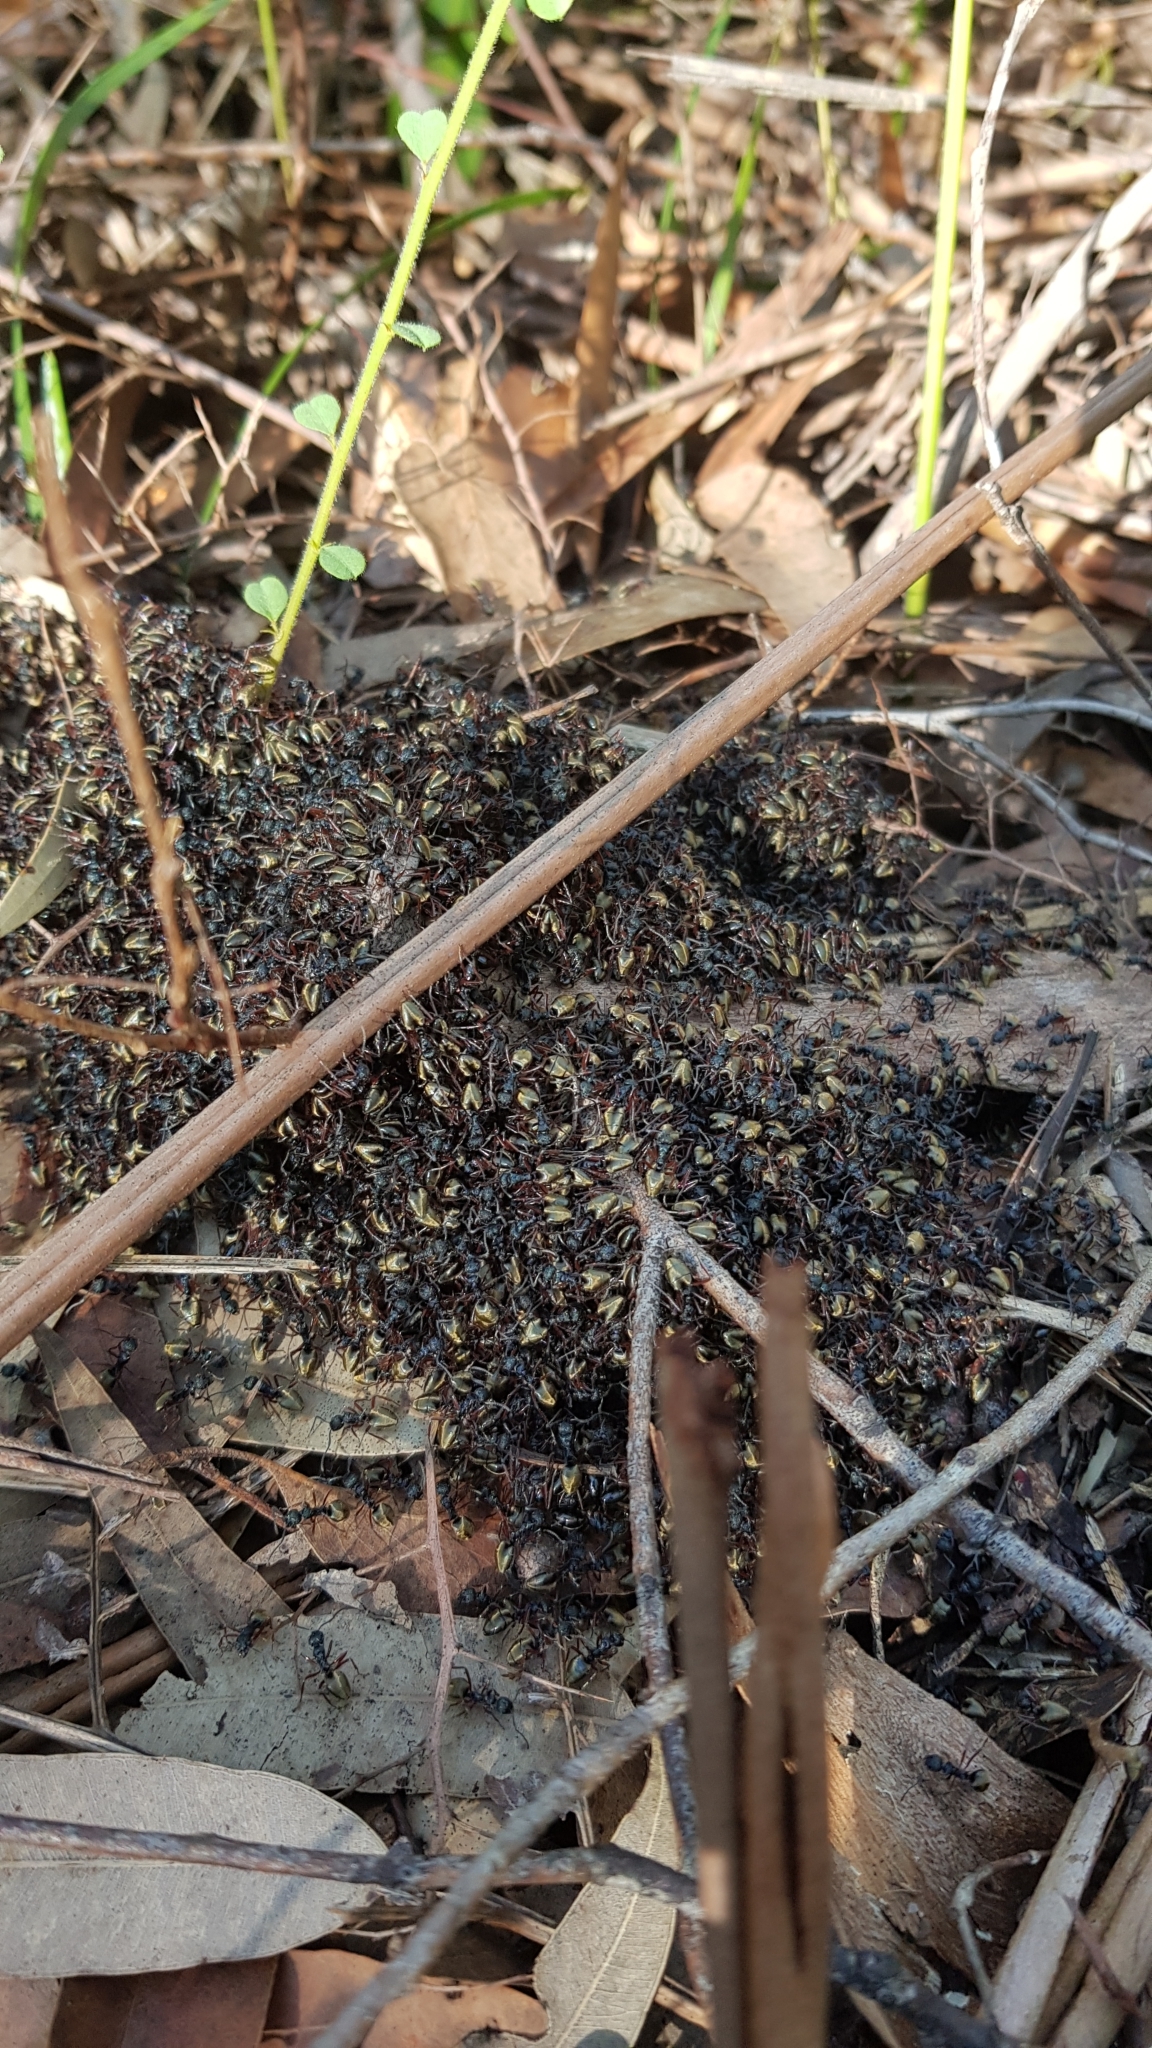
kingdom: Animalia
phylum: Arthropoda
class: Insecta
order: Hymenoptera
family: Formicidae
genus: Dolichoderus
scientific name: Dolichoderus doriae
